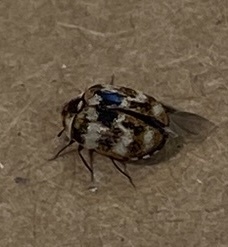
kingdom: Animalia
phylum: Arthropoda
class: Insecta
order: Coleoptera
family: Dermestidae
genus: Anthrenus
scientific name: Anthrenus verbasci
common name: Varied carpet beetle
